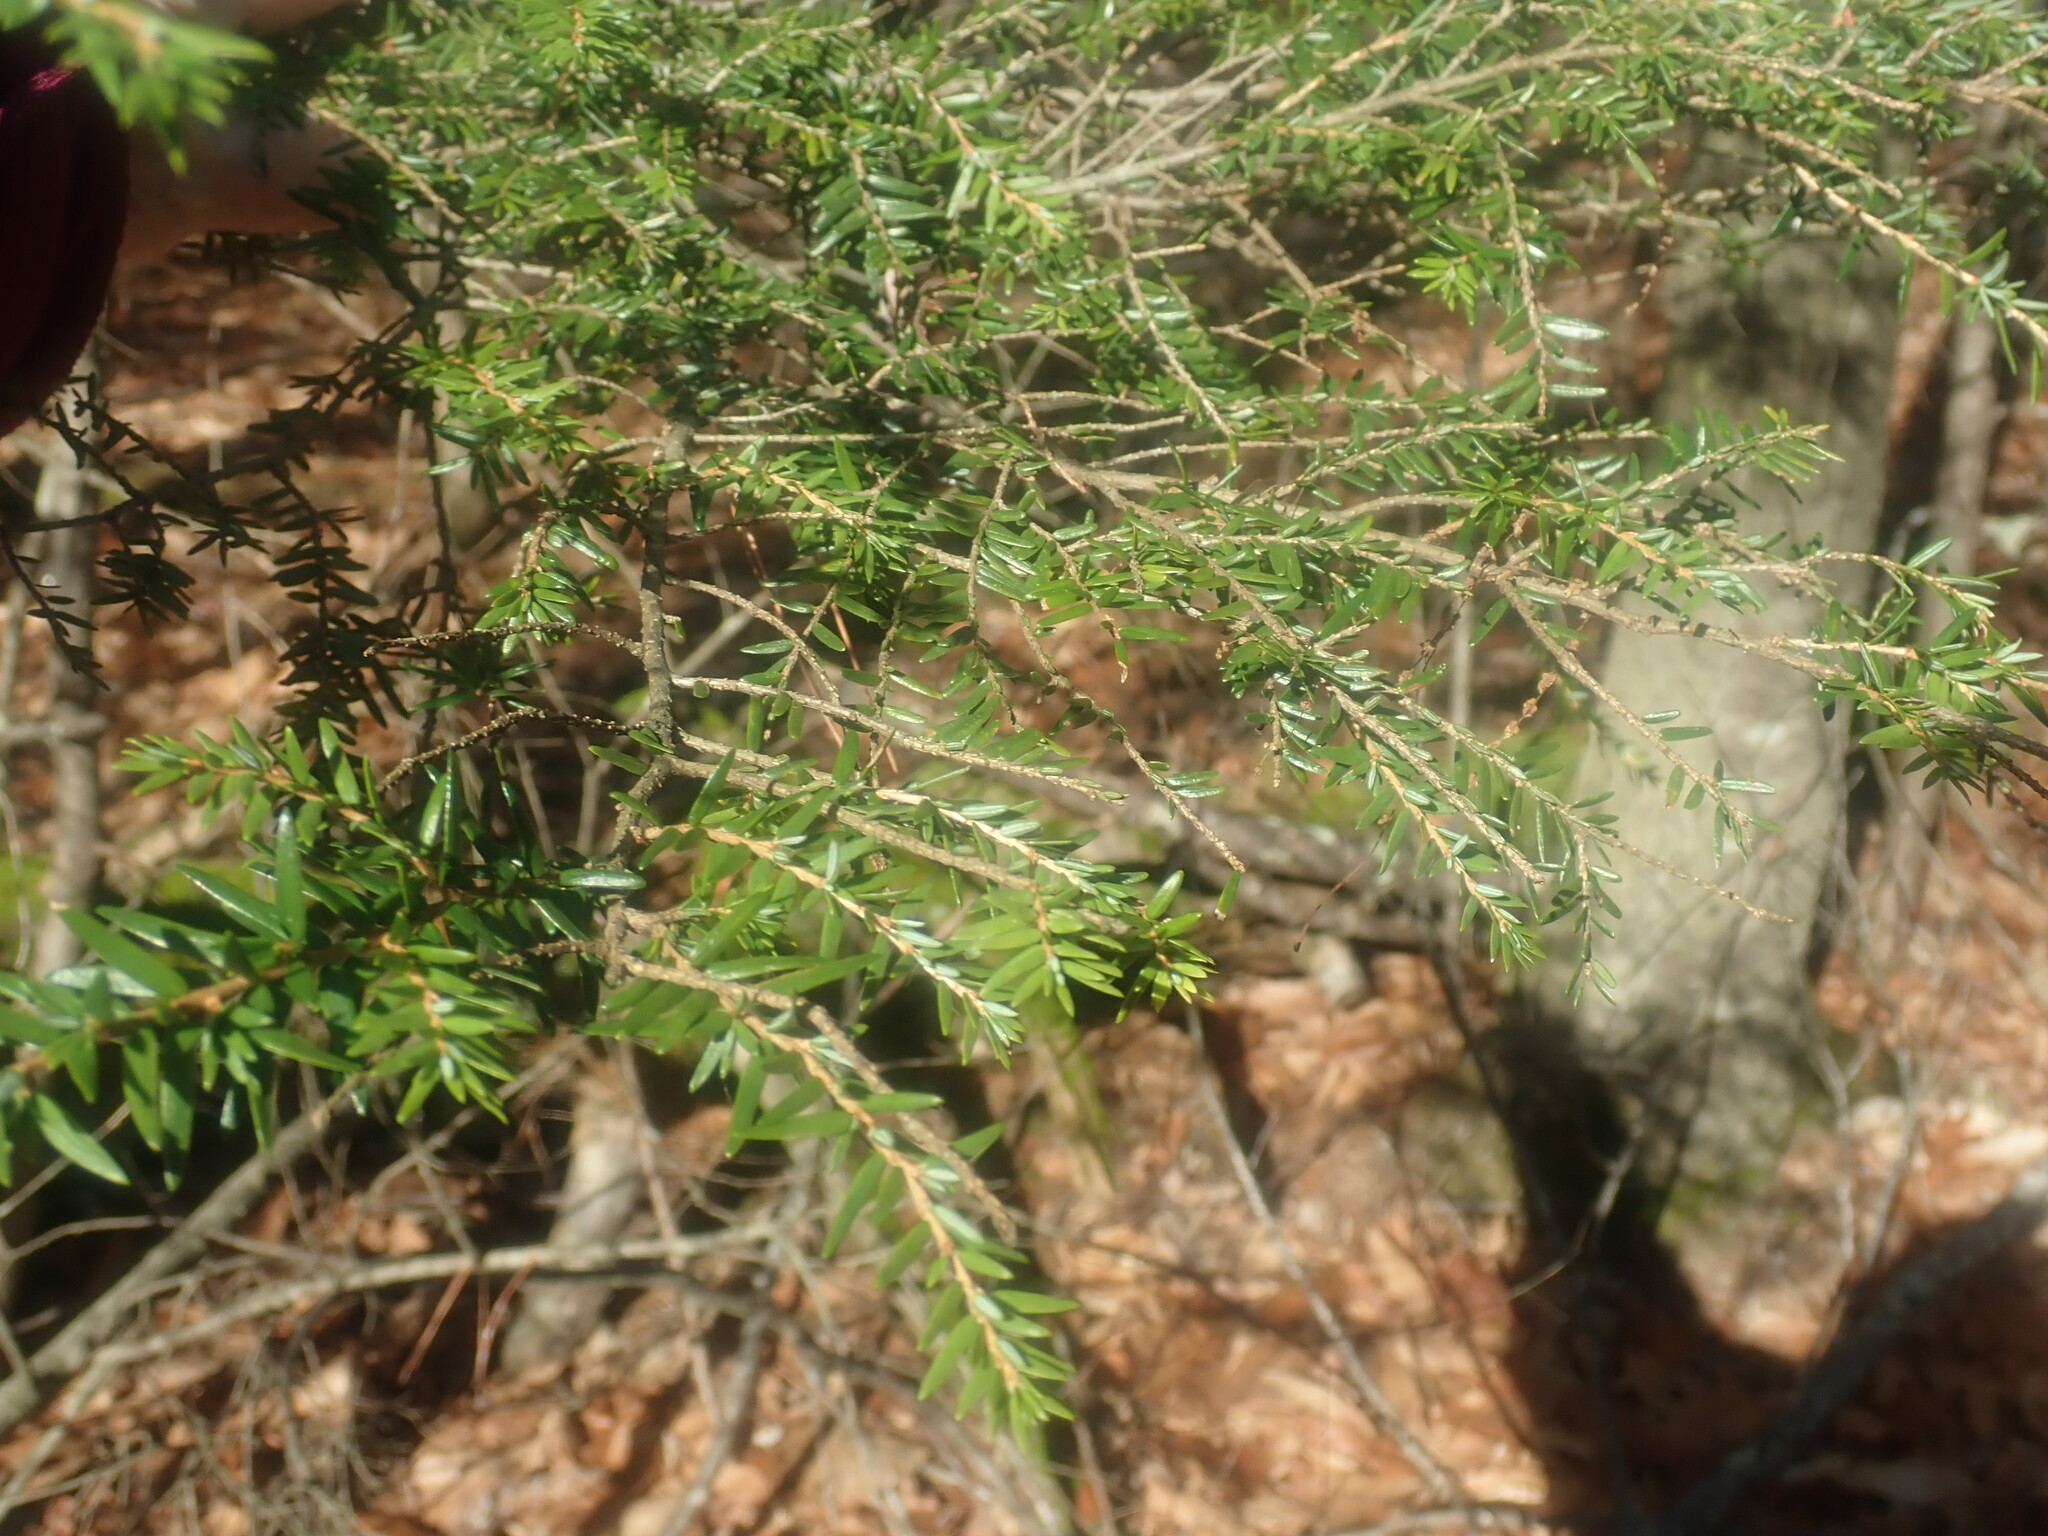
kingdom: Plantae
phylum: Tracheophyta
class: Pinopsida
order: Pinales
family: Pinaceae
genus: Tsuga
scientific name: Tsuga canadensis
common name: Eastern hemlock
